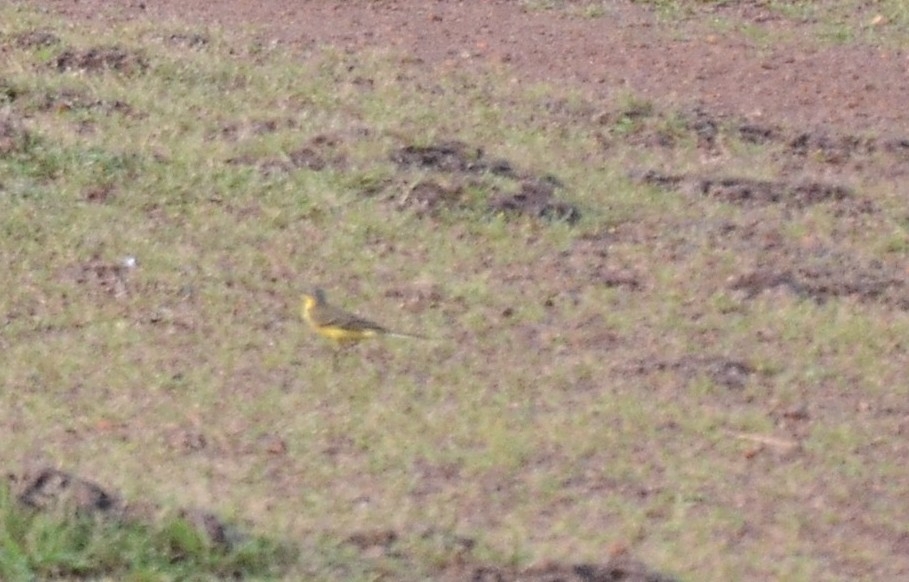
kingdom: Animalia
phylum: Chordata
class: Aves
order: Passeriformes
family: Motacillidae
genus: Motacilla
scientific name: Motacilla flava
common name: Western yellow wagtail
